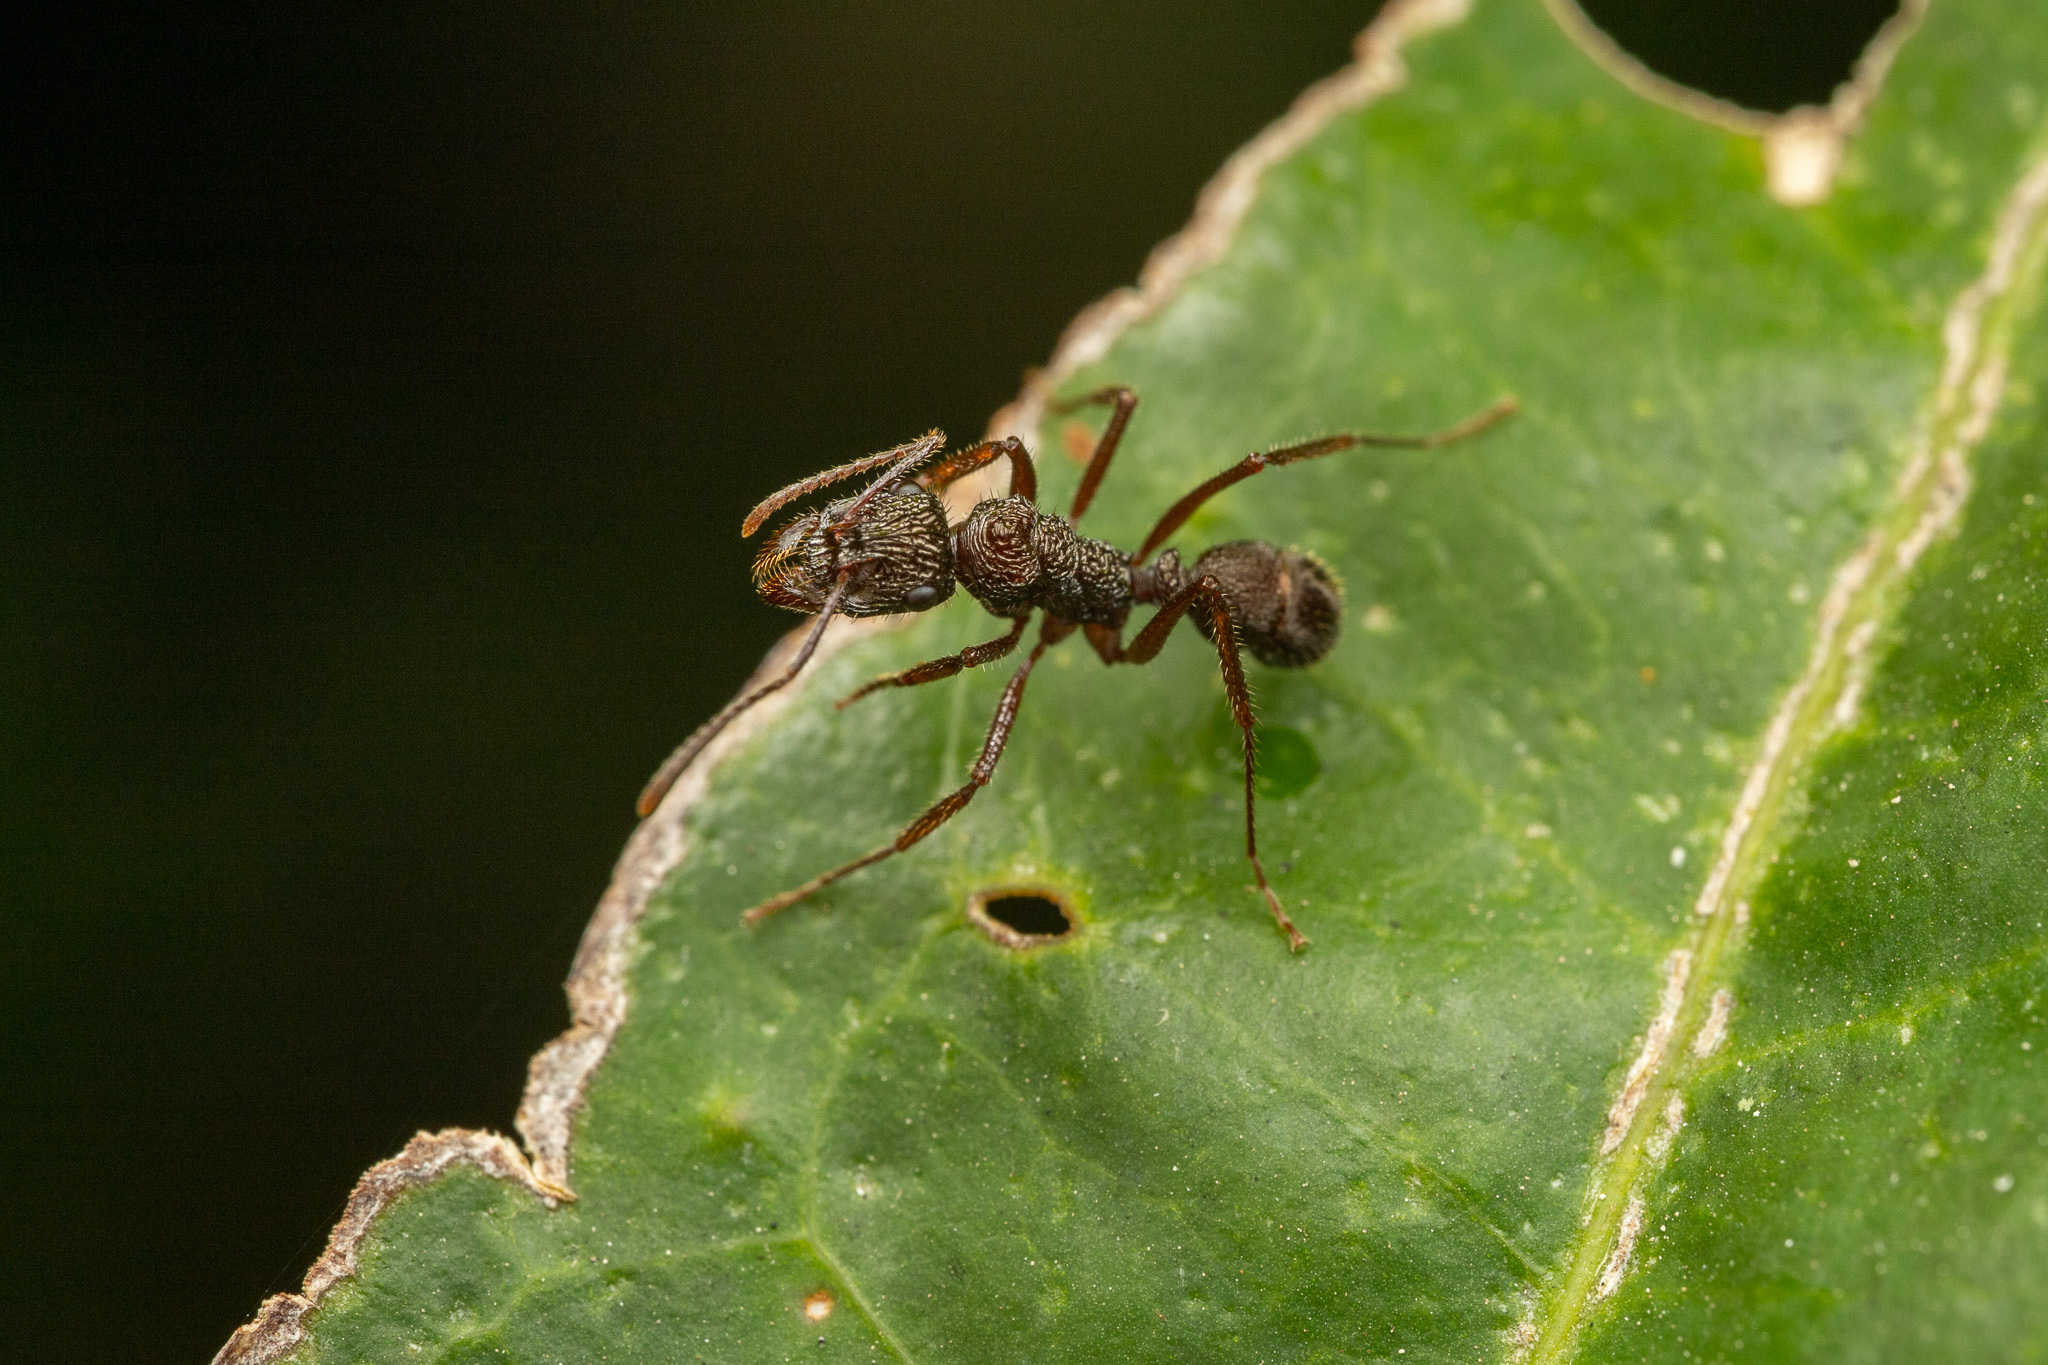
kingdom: Animalia
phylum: Arthropoda
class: Insecta
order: Hymenoptera
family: Formicidae
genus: Ectatomma
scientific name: Ectatomma ruidum
